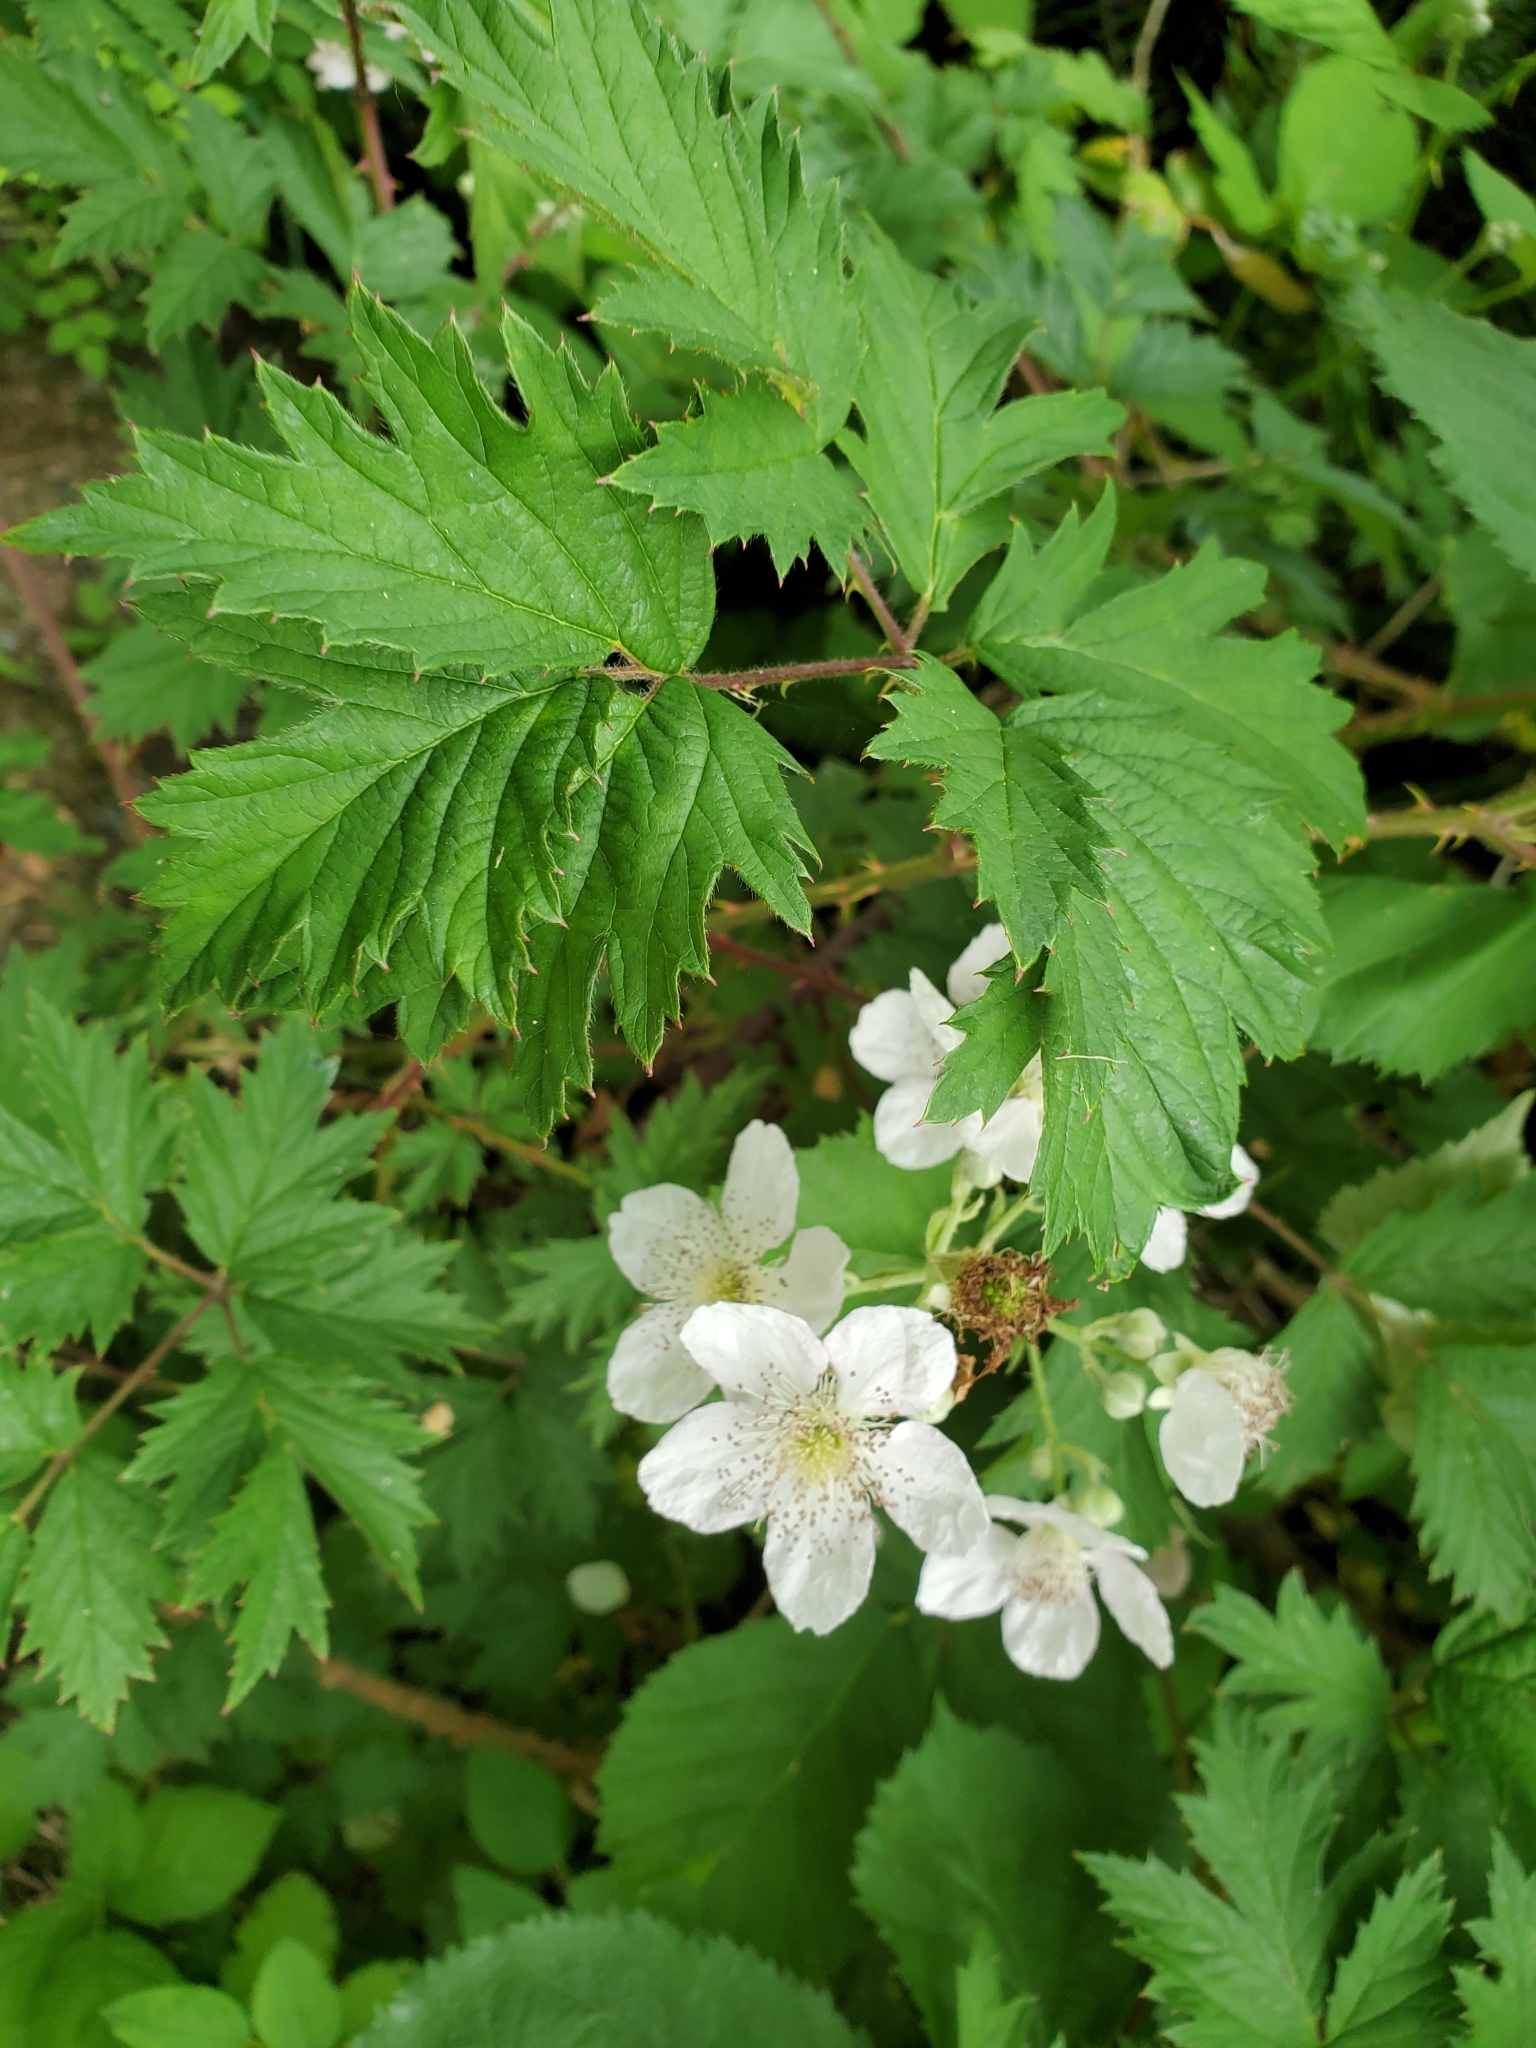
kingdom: Plantae
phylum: Tracheophyta
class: Magnoliopsida
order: Rosales
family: Rosaceae
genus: Rubus
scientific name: Rubus laciniatus
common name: Evergreen blackberry
